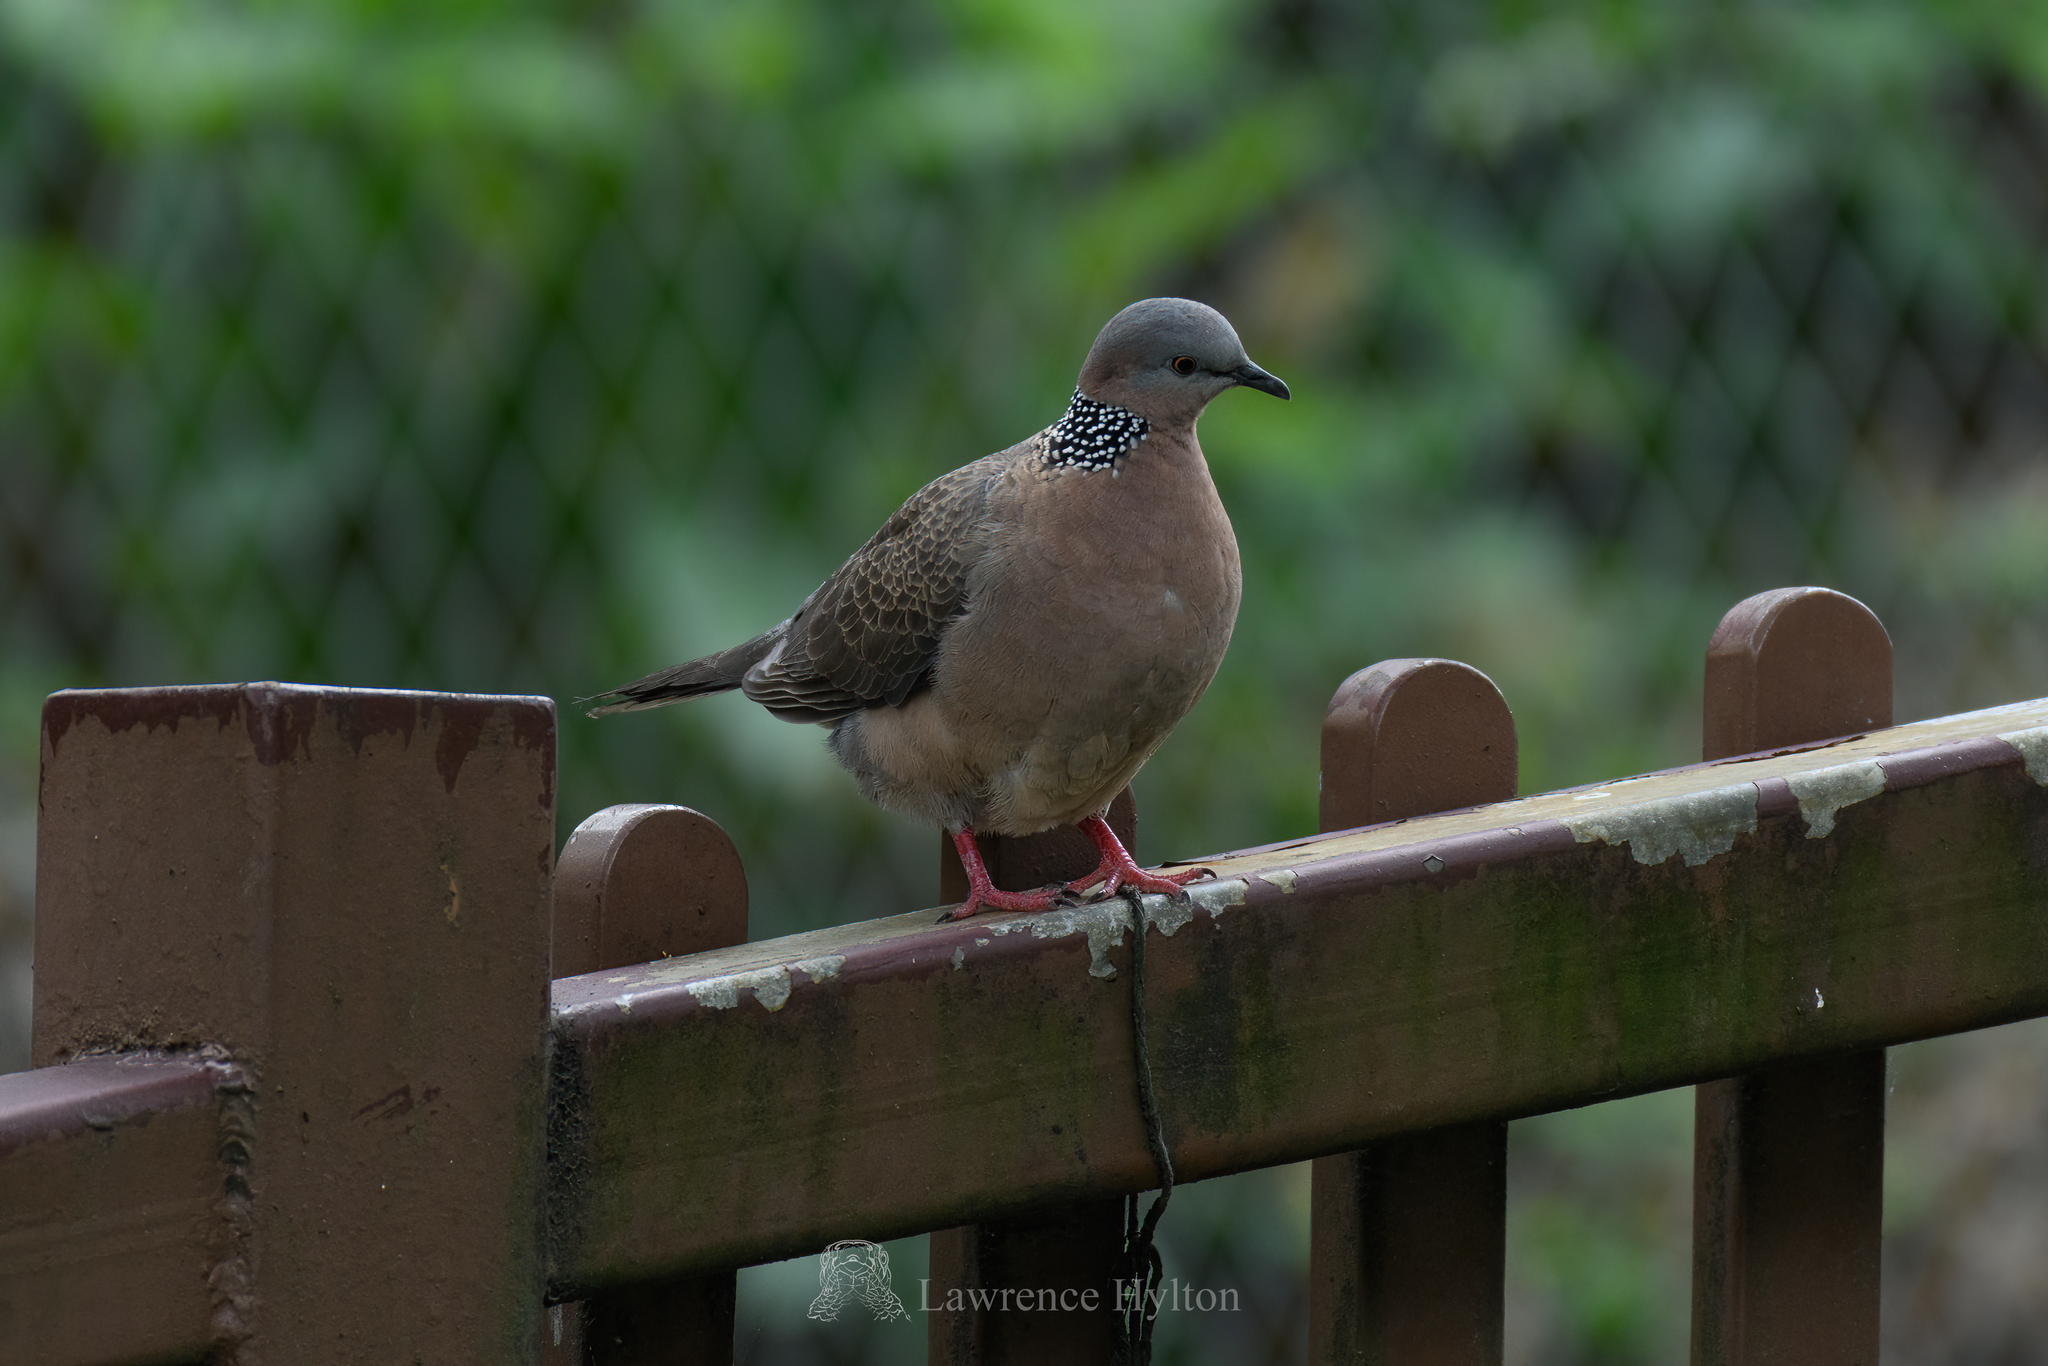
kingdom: Animalia
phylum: Chordata
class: Aves
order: Columbiformes
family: Columbidae
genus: Spilopelia
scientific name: Spilopelia chinensis
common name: Spotted dove
